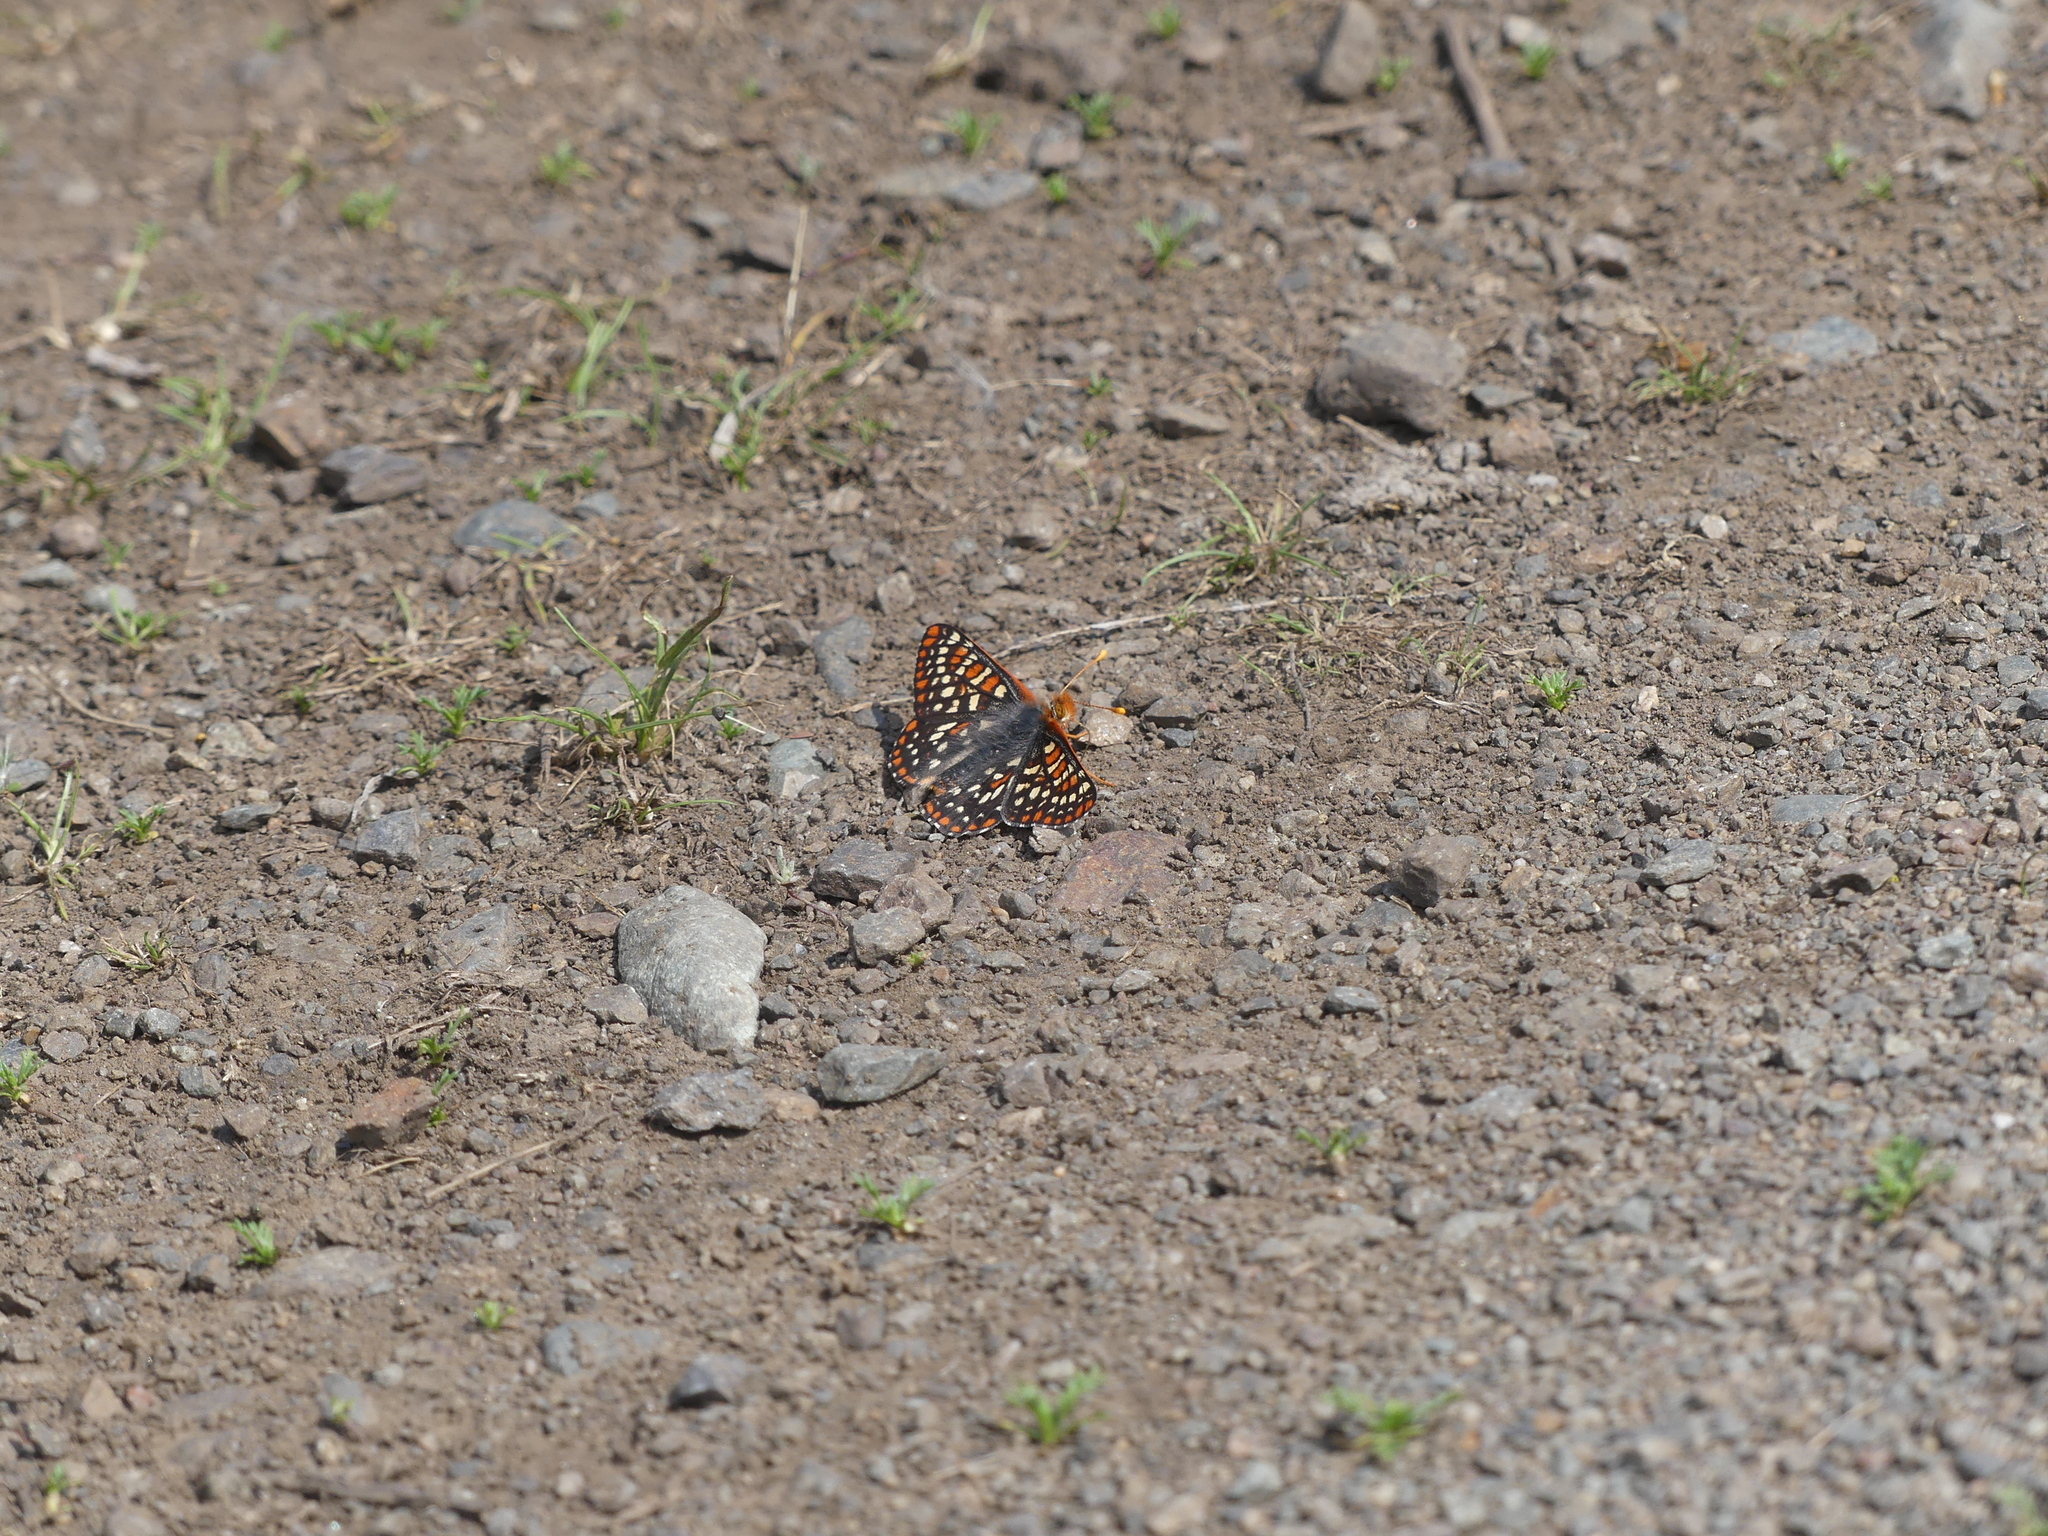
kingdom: Animalia
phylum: Arthropoda
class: Insecta
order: Lepidoptera
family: Nymphalidae
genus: Occidryas
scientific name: Occidryas anicia
